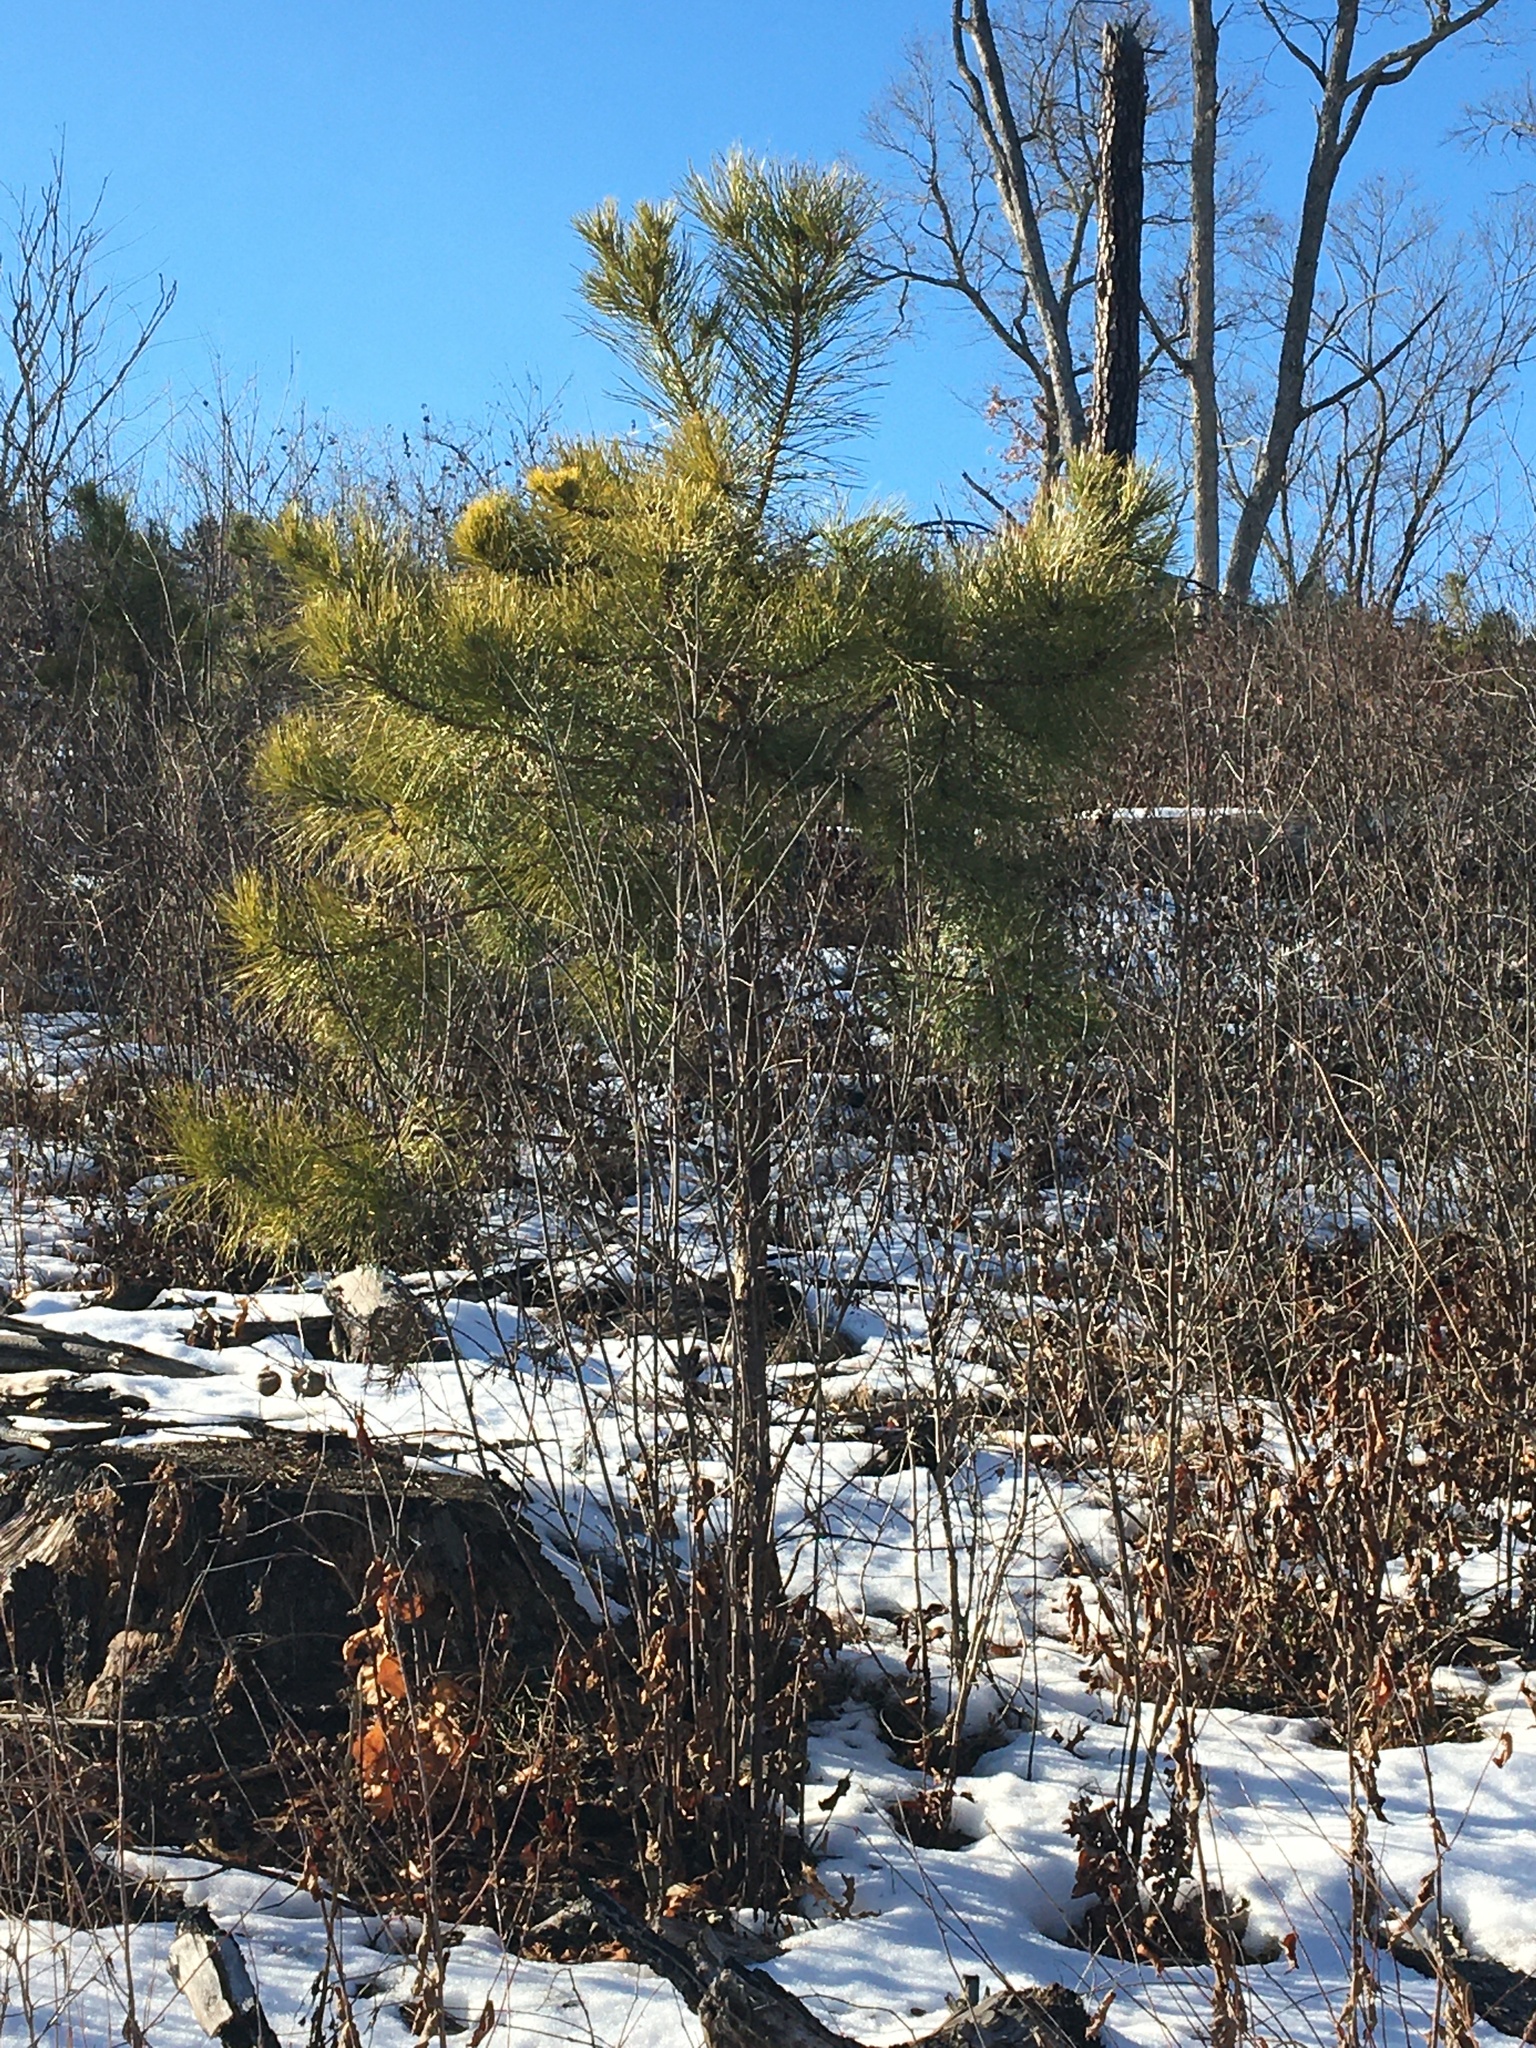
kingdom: Plantae
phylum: Tracheophyta
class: Pinopsida
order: Pinales
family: Pinaceae
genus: Pinus
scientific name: Pinus rigida
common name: Pitch pine
